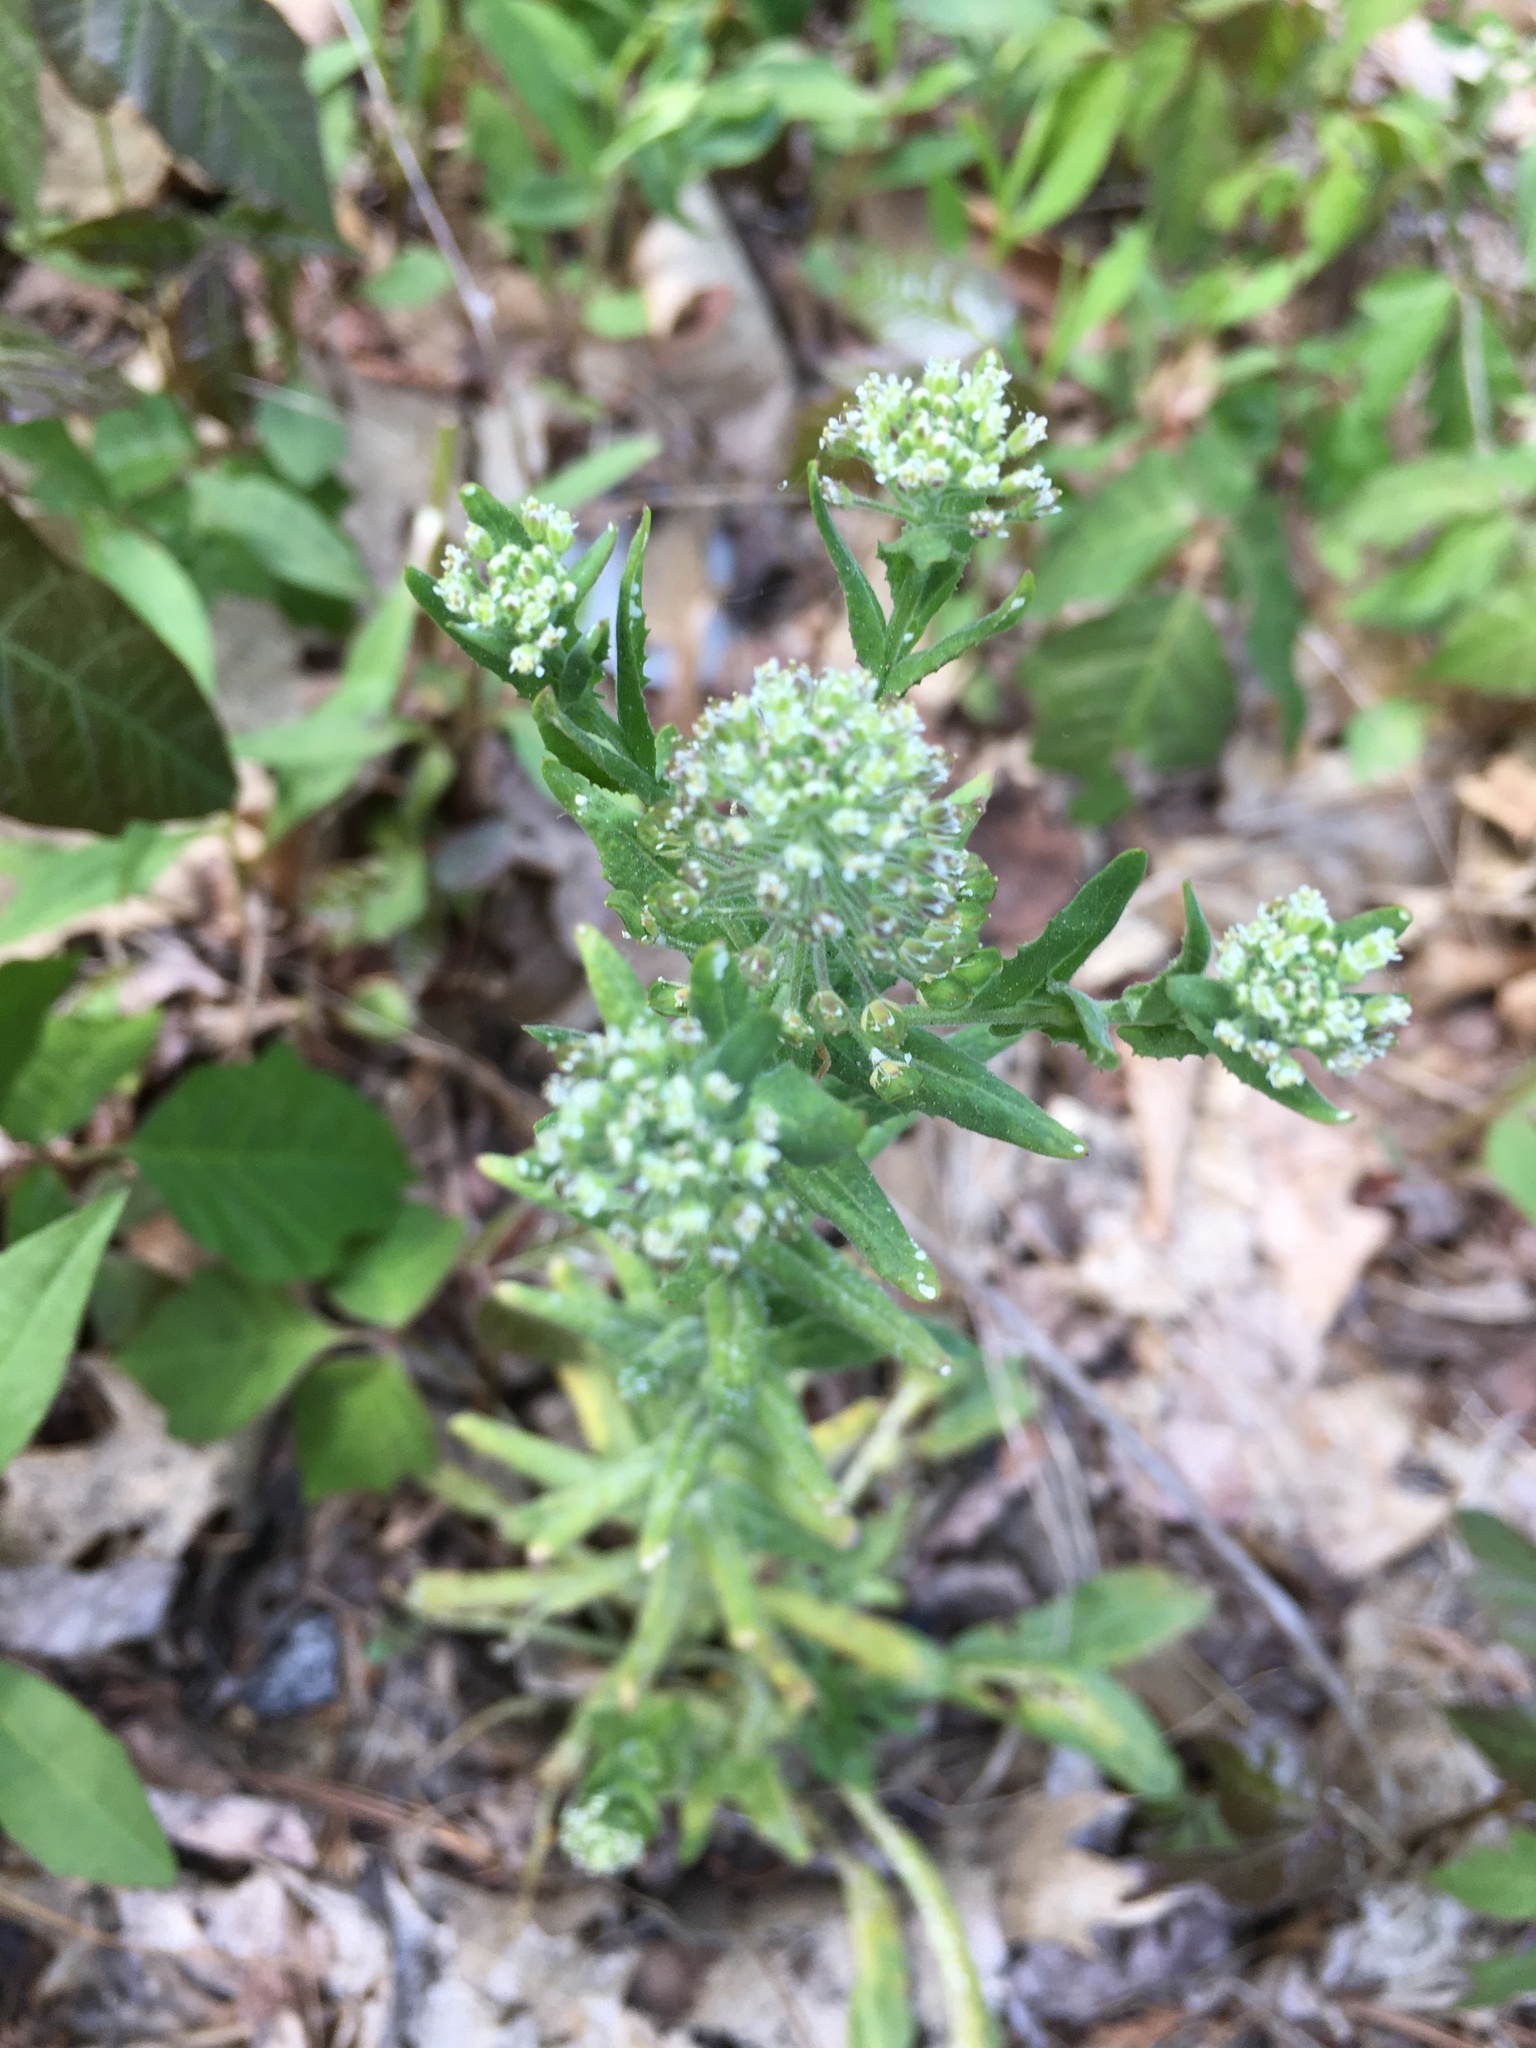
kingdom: Plantae
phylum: Tracheophyta
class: Magnoliopsida
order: Brassicales
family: Brassicaceae
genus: Lepidium
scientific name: Lepidium campestre
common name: Field pepperwort
